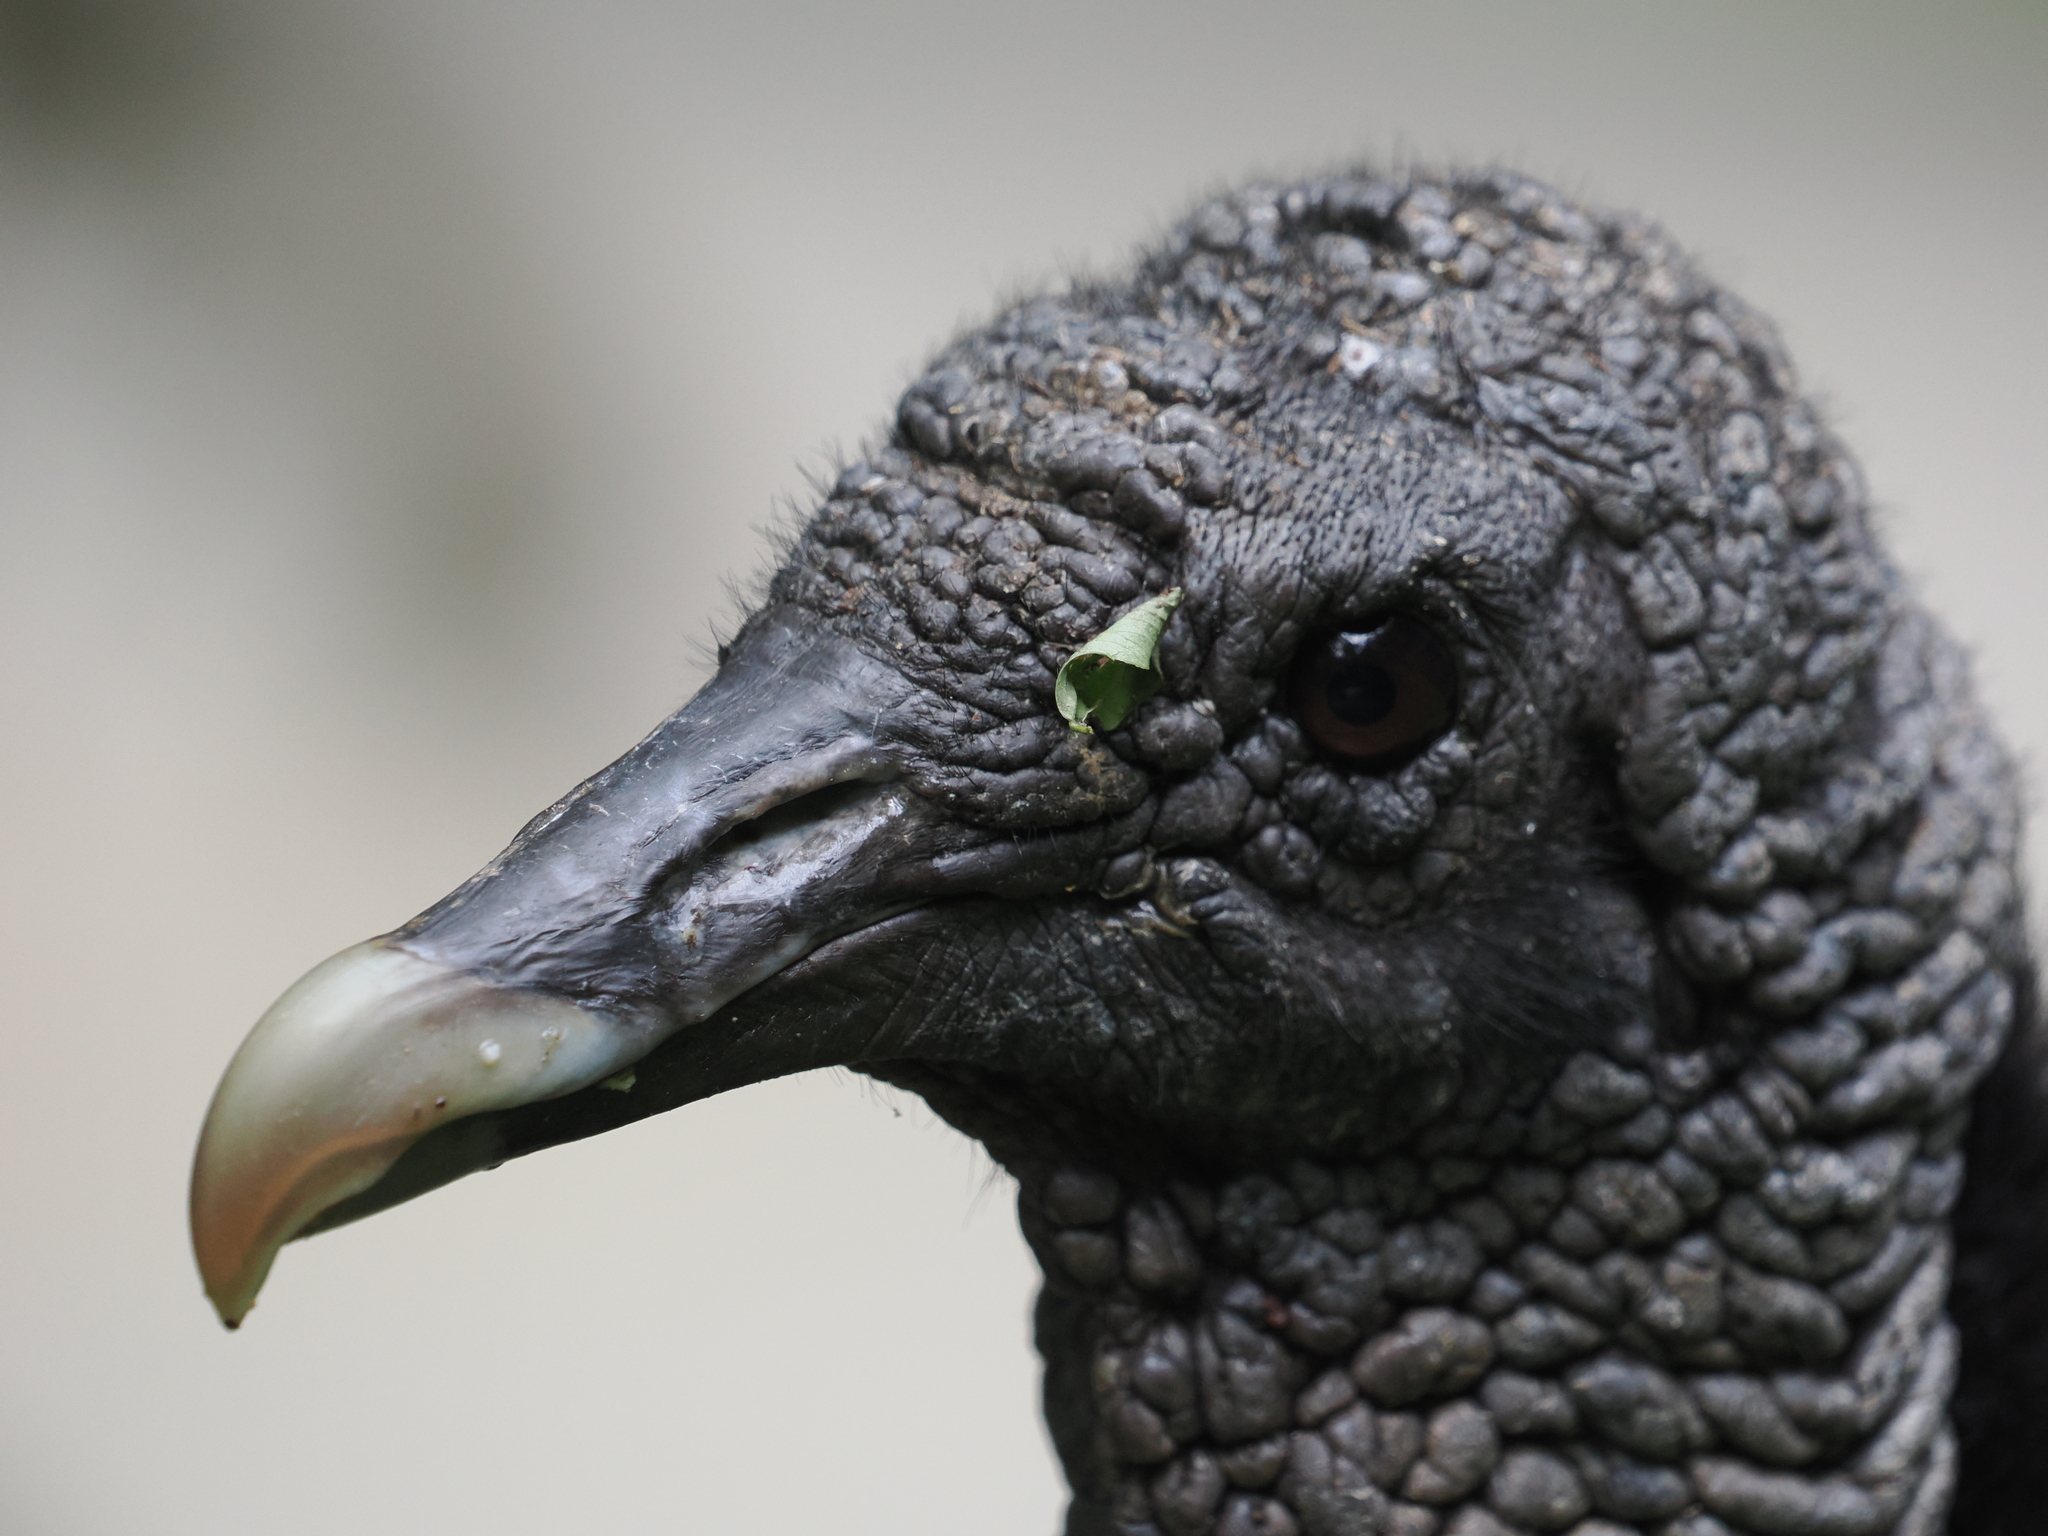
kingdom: Animalia
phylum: Chordata
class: Aves
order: Accipitriformes
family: Cathartidae
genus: Coragyps
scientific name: Coragyps atratus
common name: Black vulture
